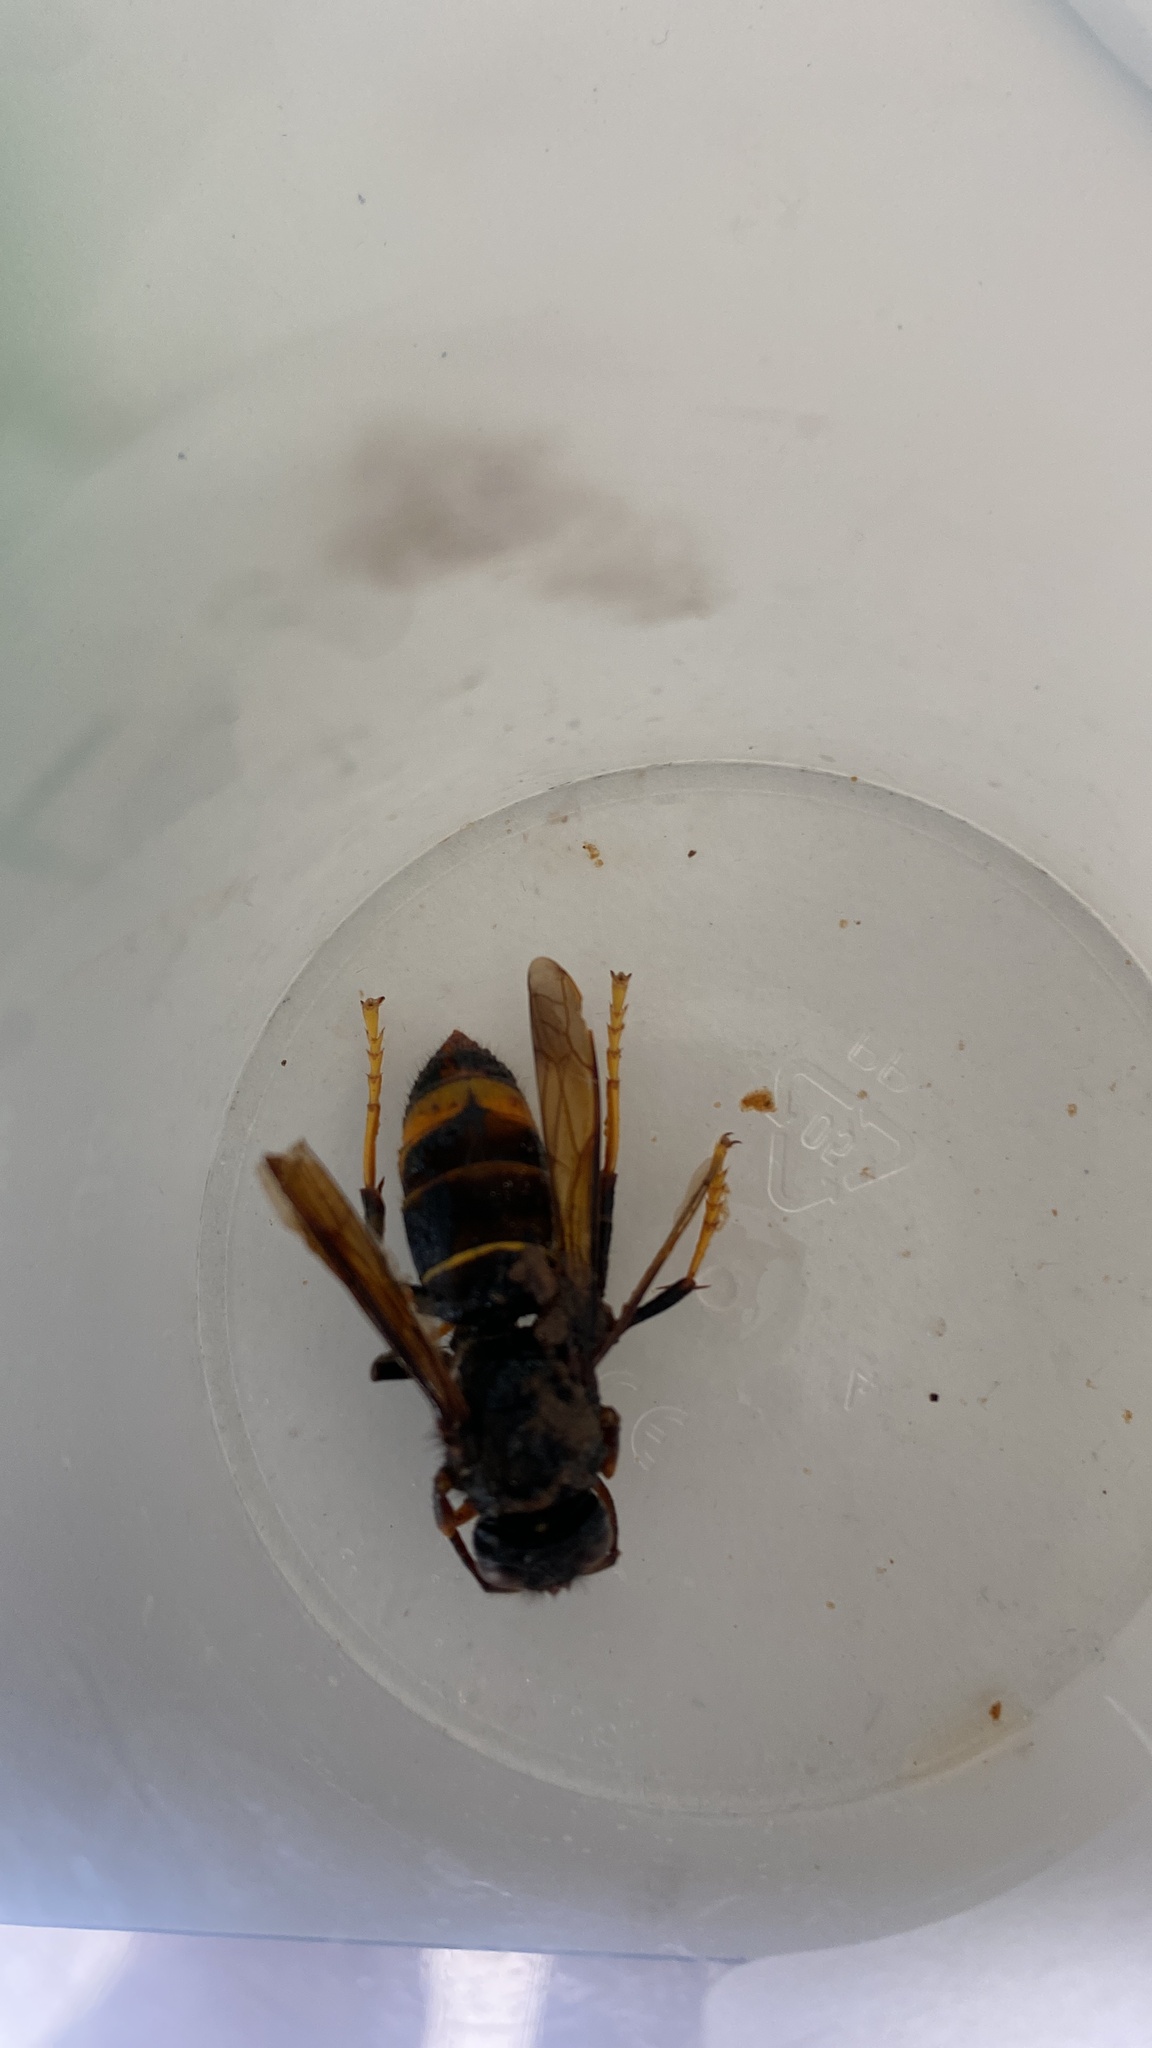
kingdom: Animalia
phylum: Arthropoda
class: Insecta
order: Hymenoptera
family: Vespidae
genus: Vespa
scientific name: Vespa velutina
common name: Asian hornet
